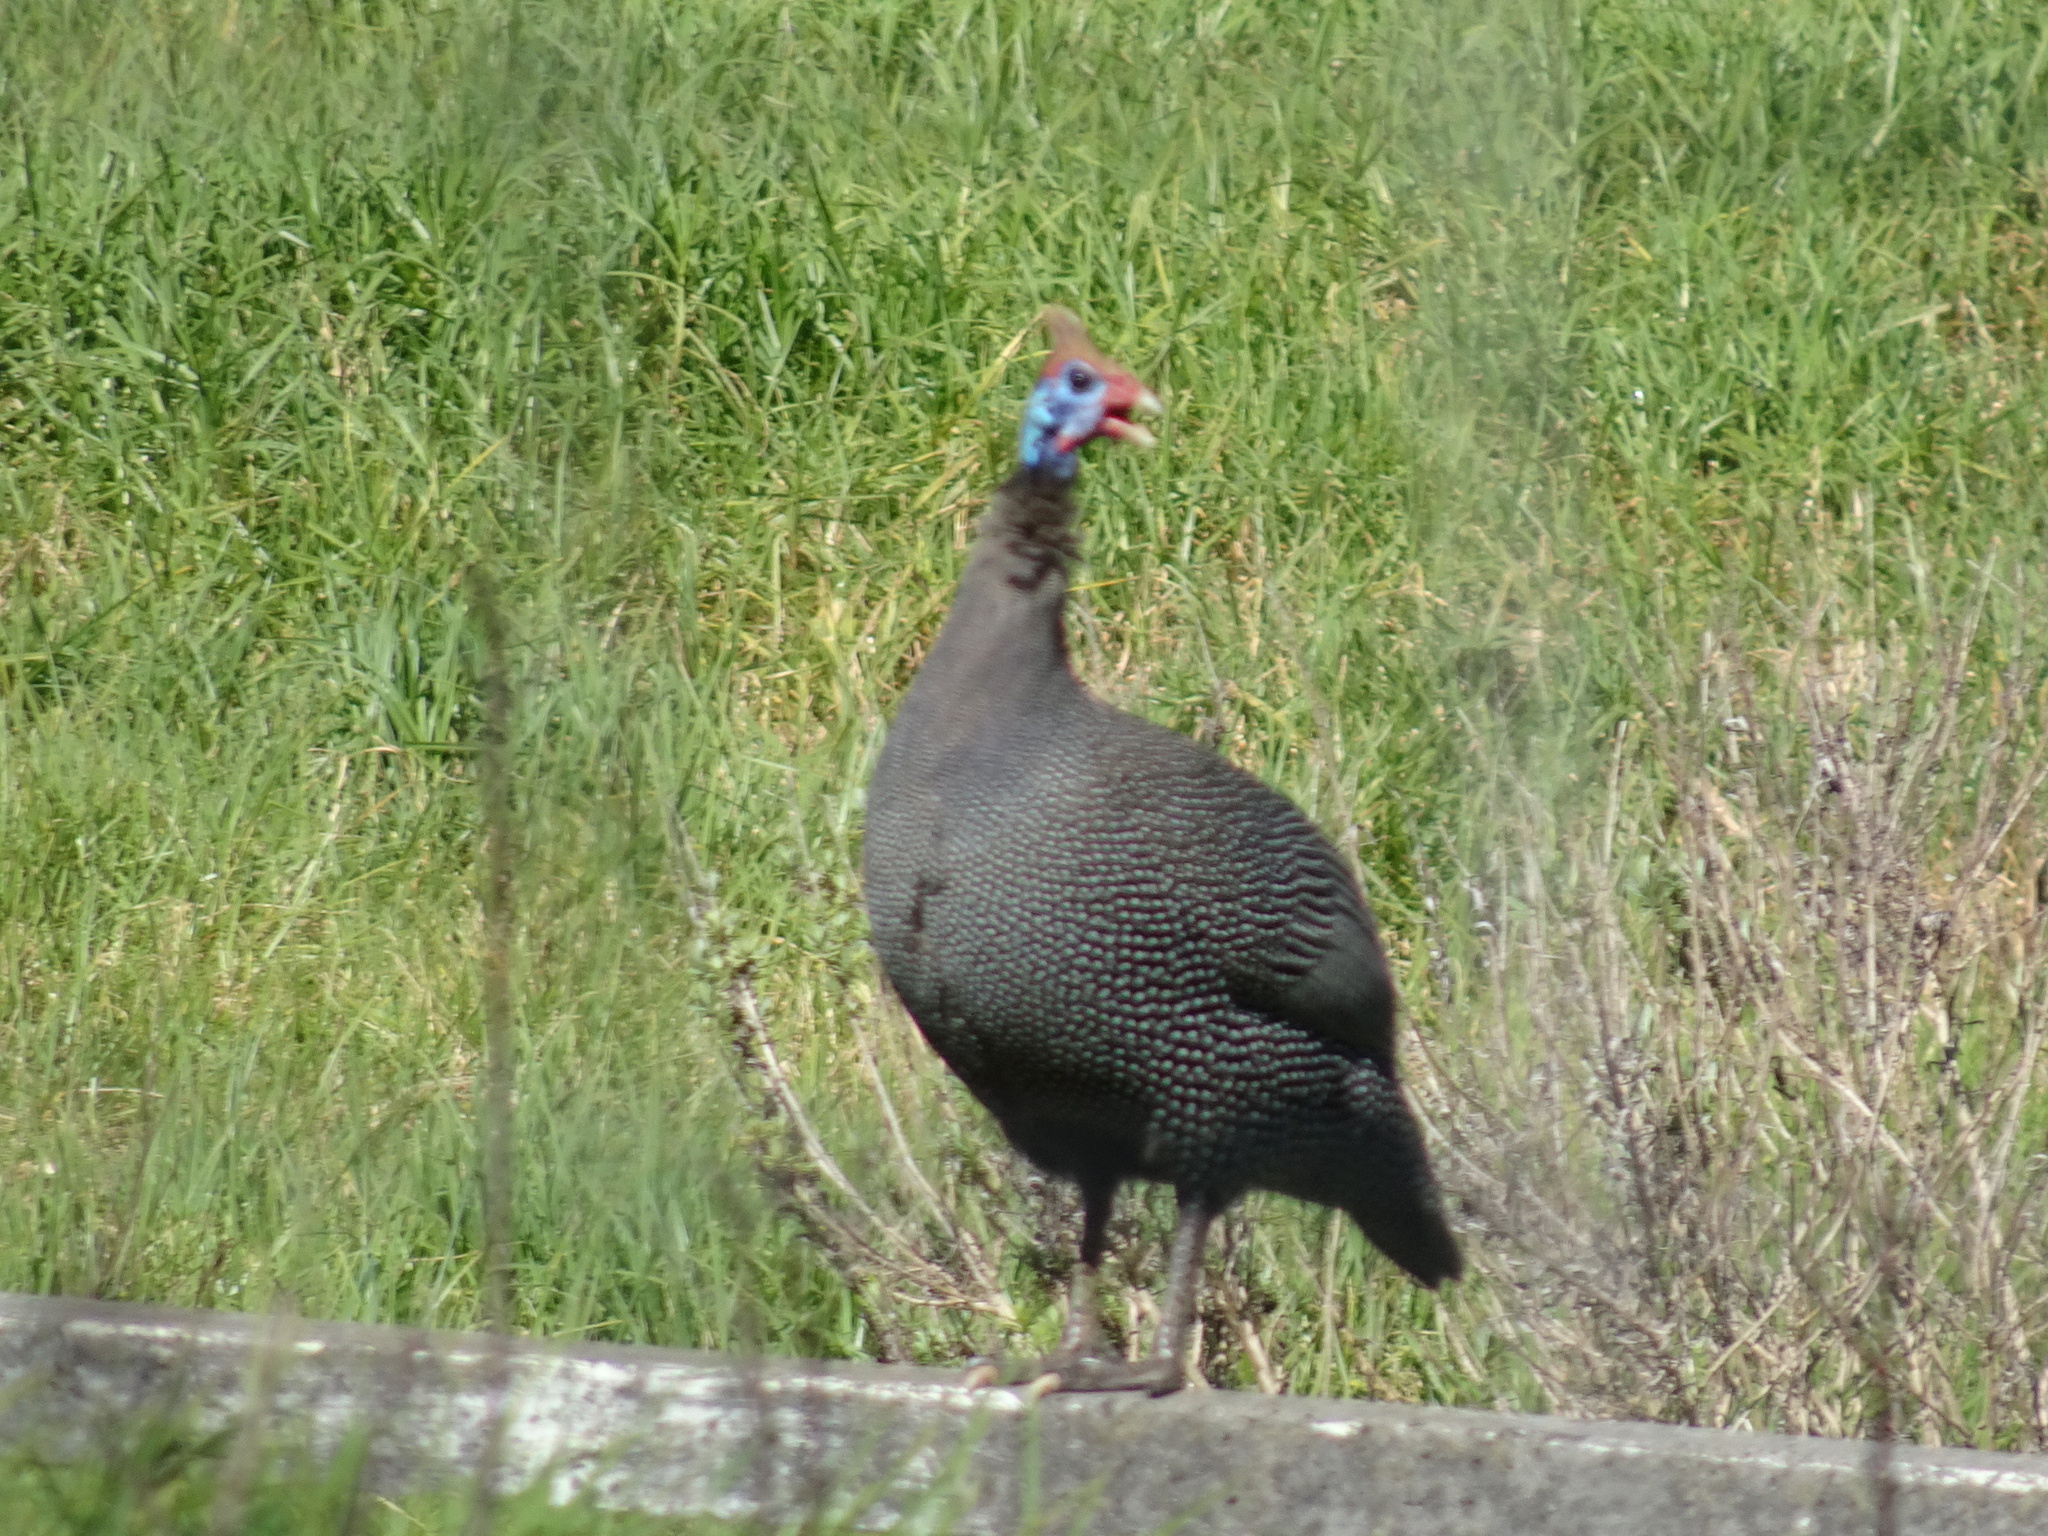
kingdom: Animalia
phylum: Chordata
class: Aves
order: Galliformes
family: Numididae
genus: Numida
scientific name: Numida meleagris
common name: Helmeted guineafowl
